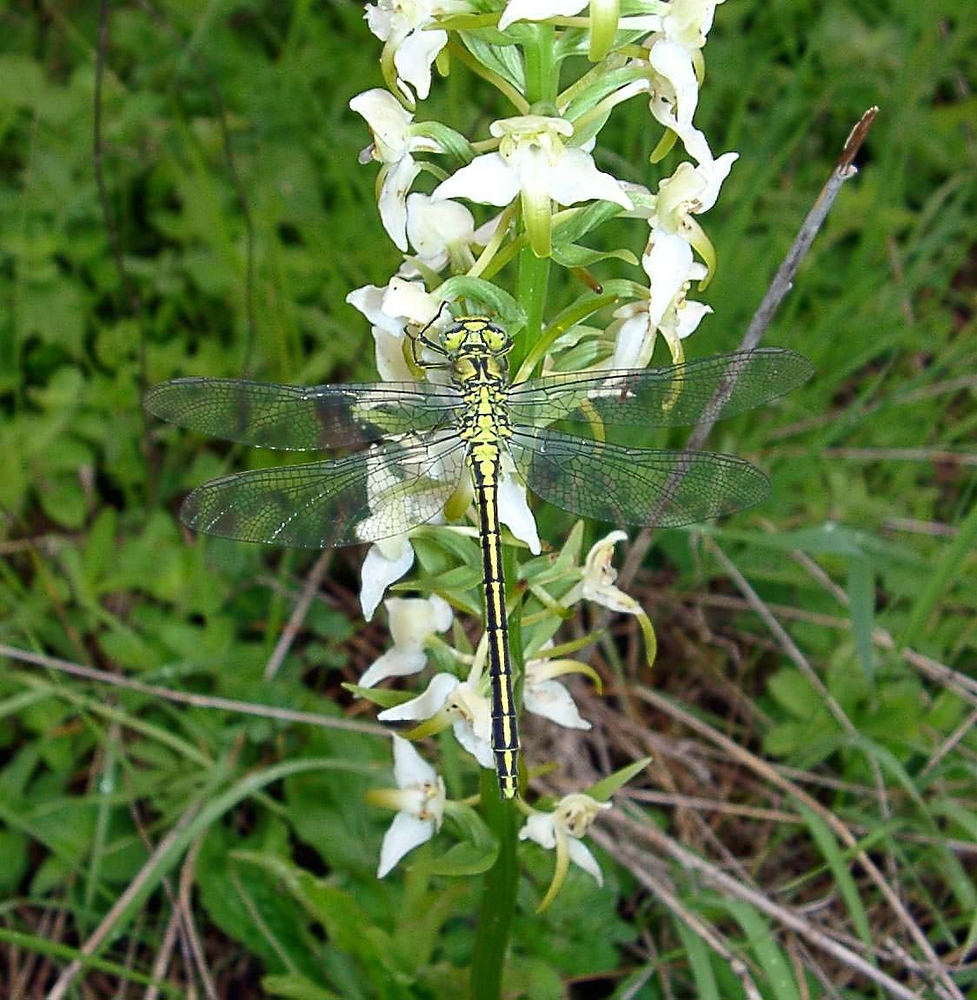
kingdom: Animalia
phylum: Arthropoda
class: Insecta
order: Odonata
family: Gomphidae
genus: Gomphus
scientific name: Gomphus pulchellus
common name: Western clubtail
